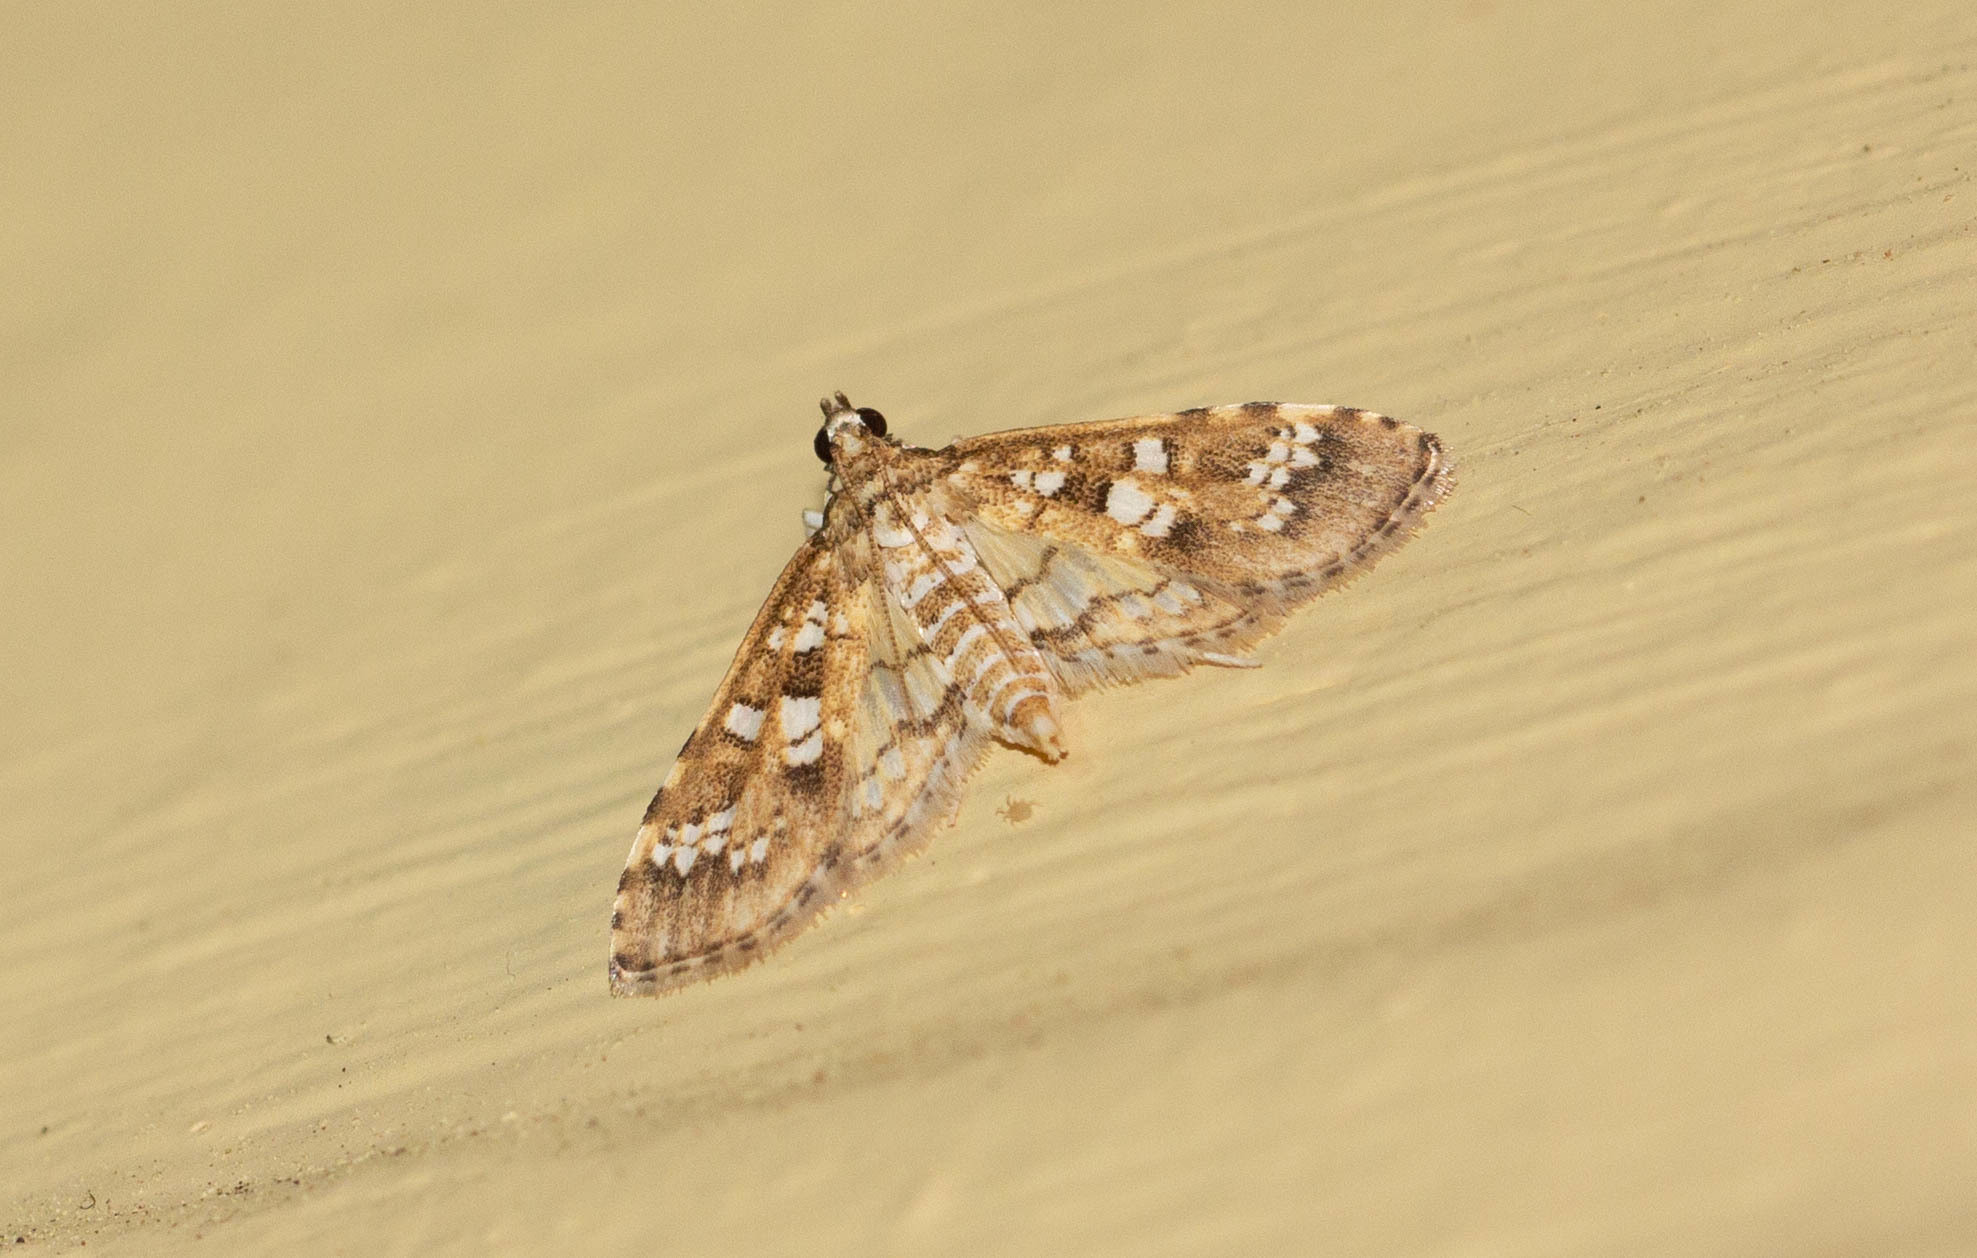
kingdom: Animalia
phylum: Arthropoda
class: Insecta
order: Lepidoptera
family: Crambidae
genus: Samea
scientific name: Samea multiplicalis
